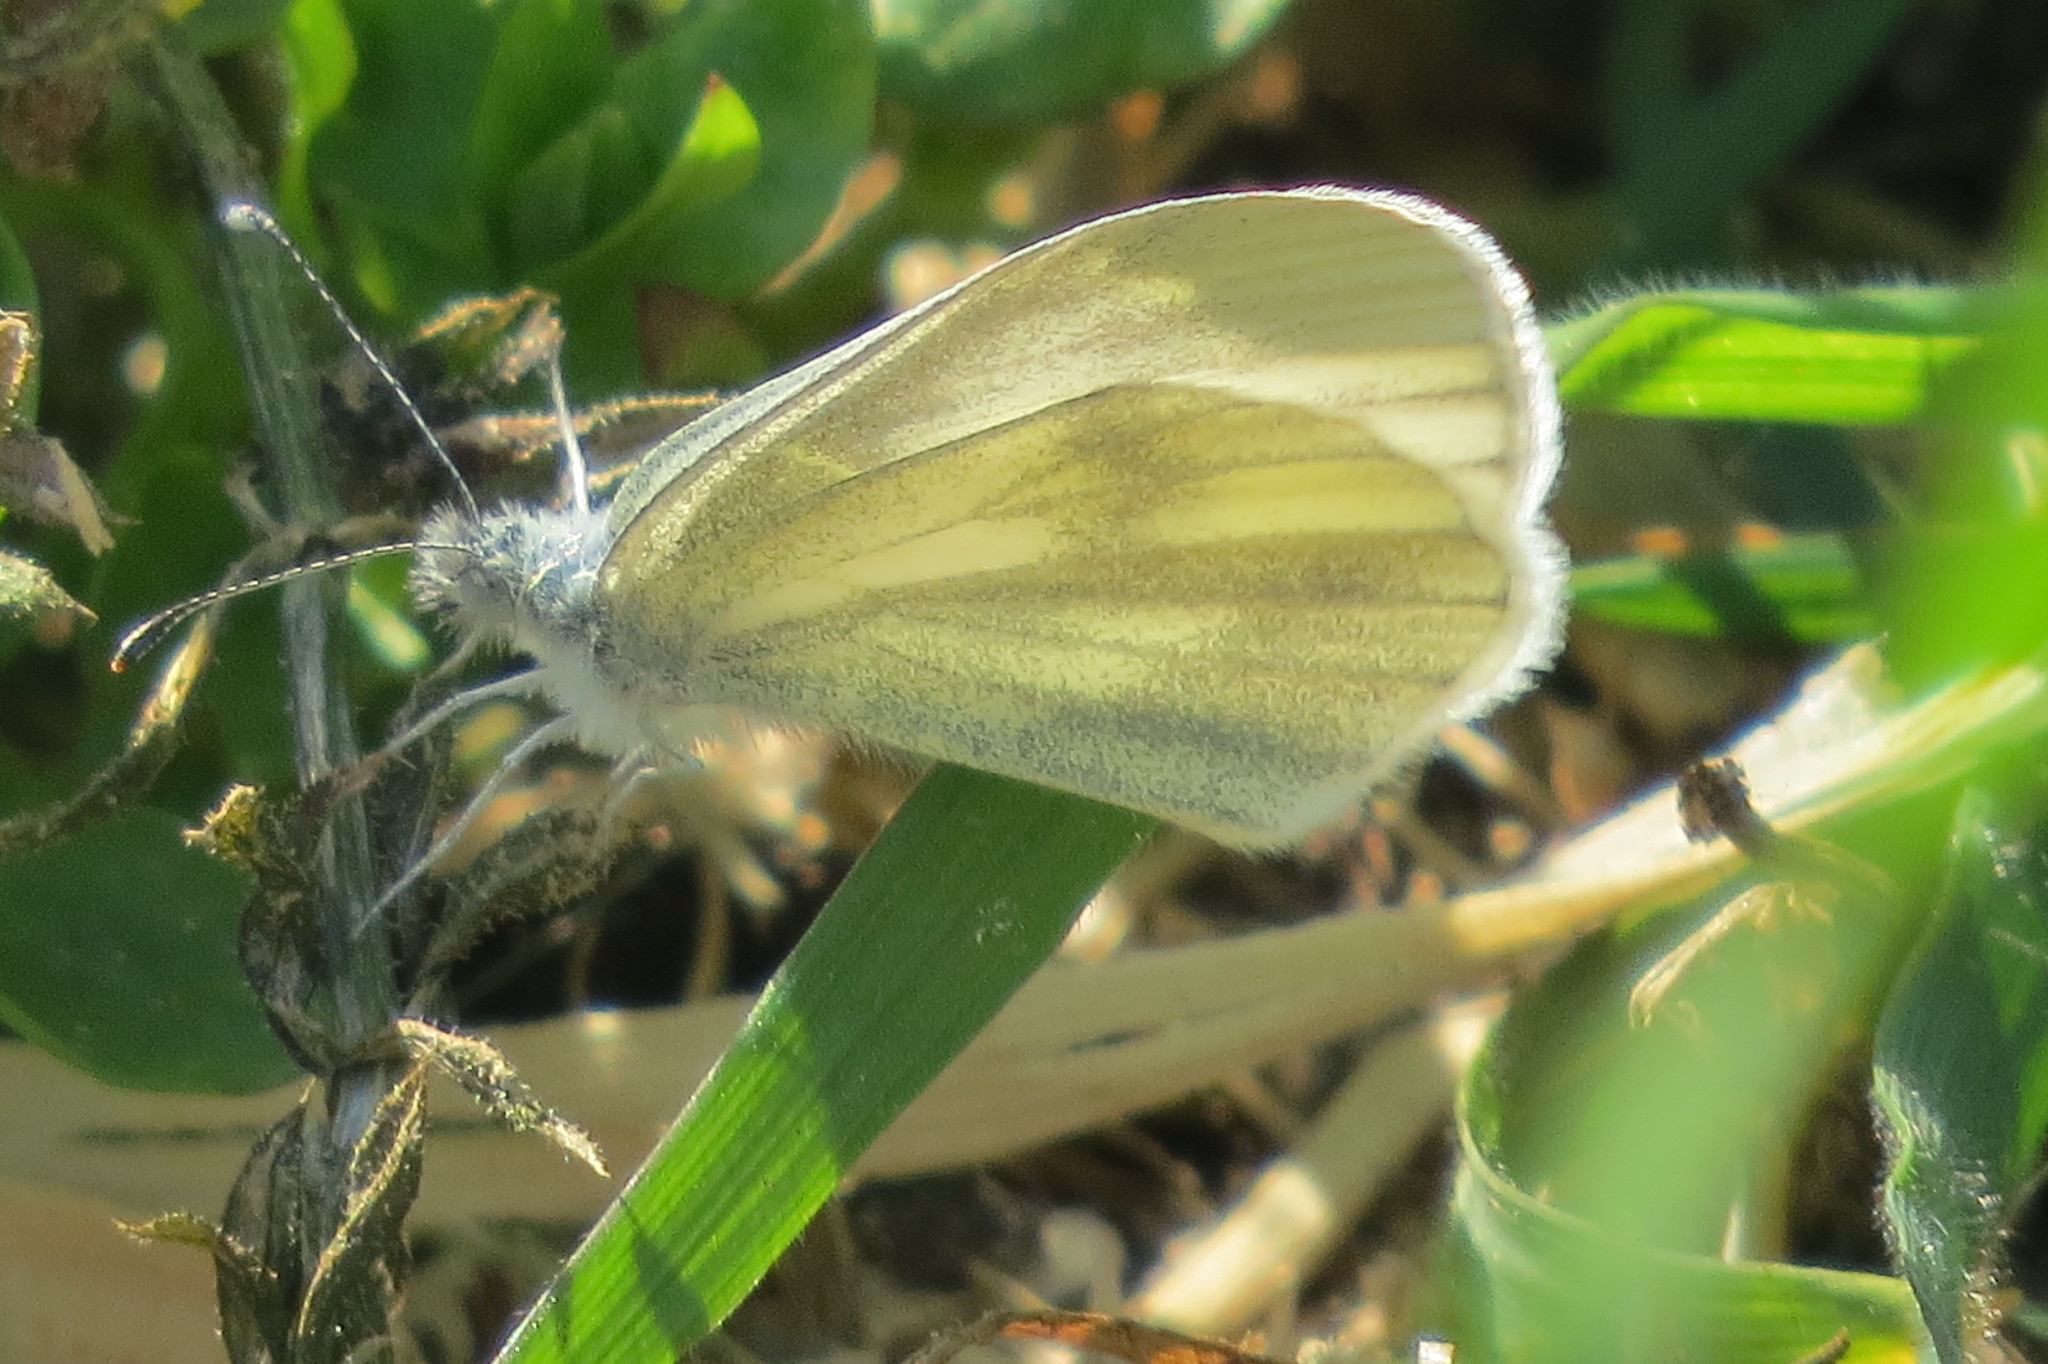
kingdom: Animalia
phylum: Arthropoda
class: Insecta
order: Lepidoptera
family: Pieridae
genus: Leptidea
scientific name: Leptidea
